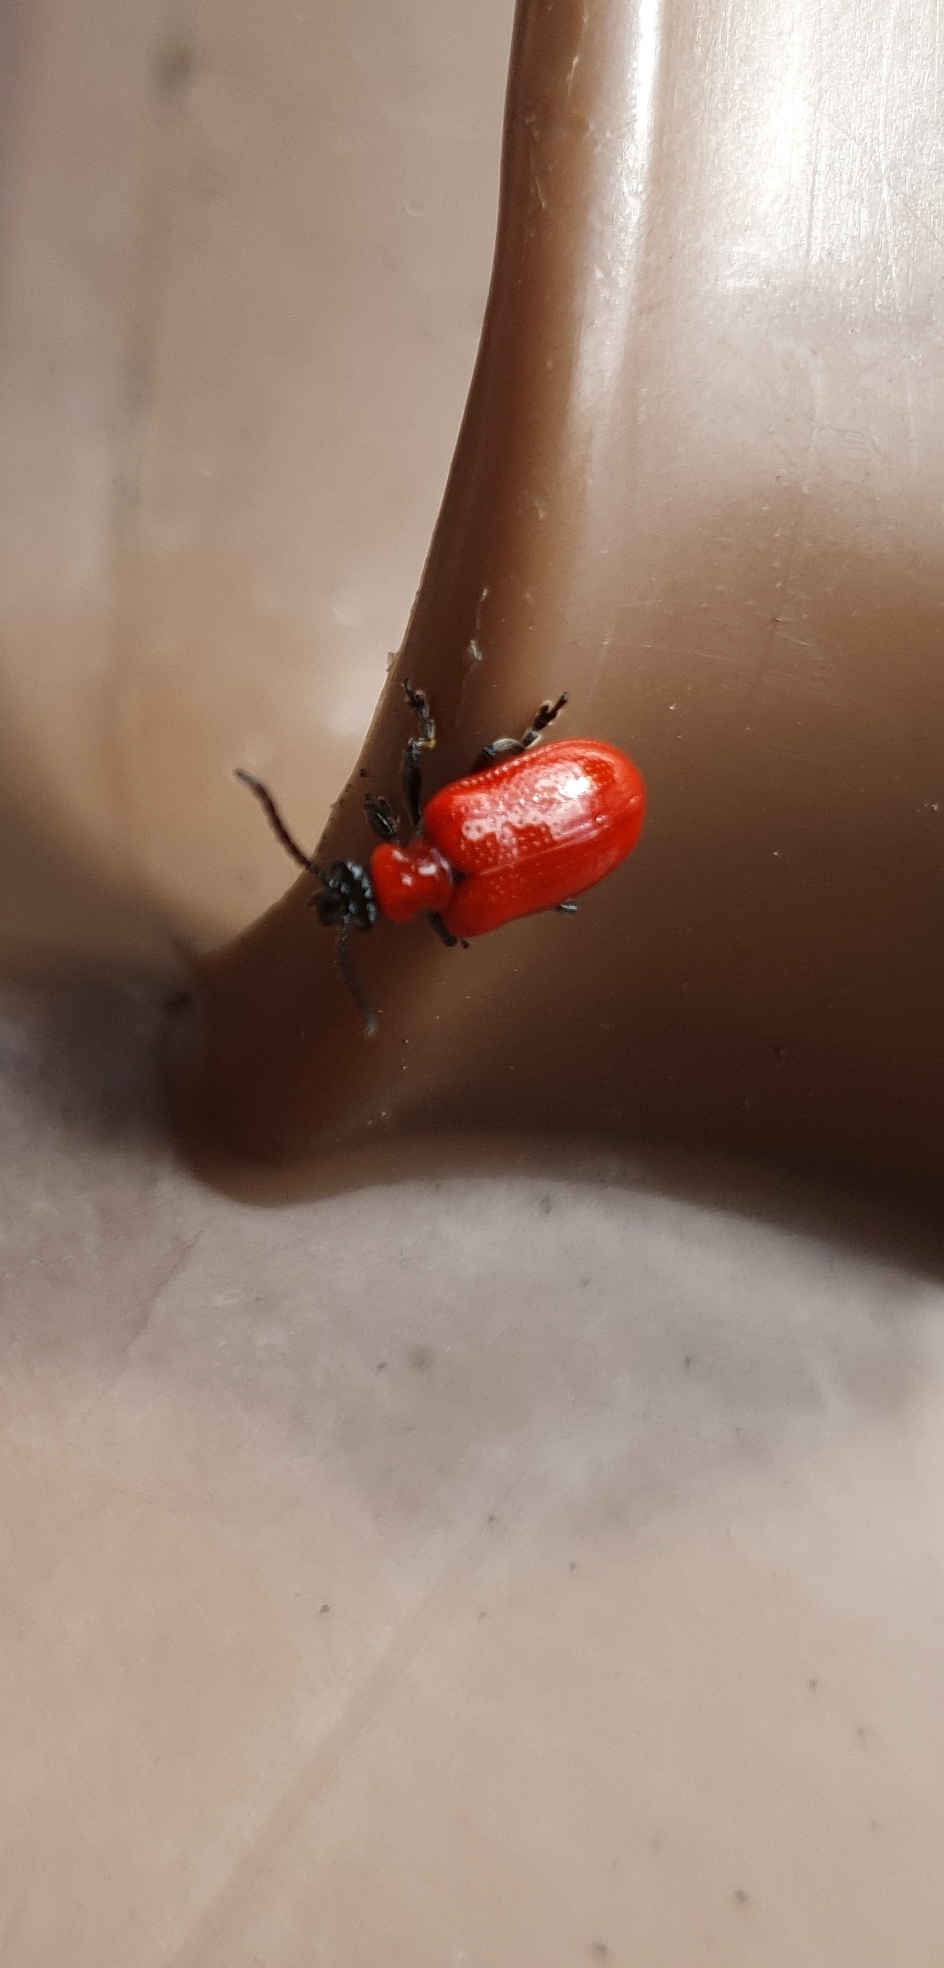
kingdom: Animalia
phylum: Arthropoda
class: Insecta
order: Coleoptera
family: Chrysomelidae
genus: Lilioceris
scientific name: Lilioceris lilii
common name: Lily beetle
